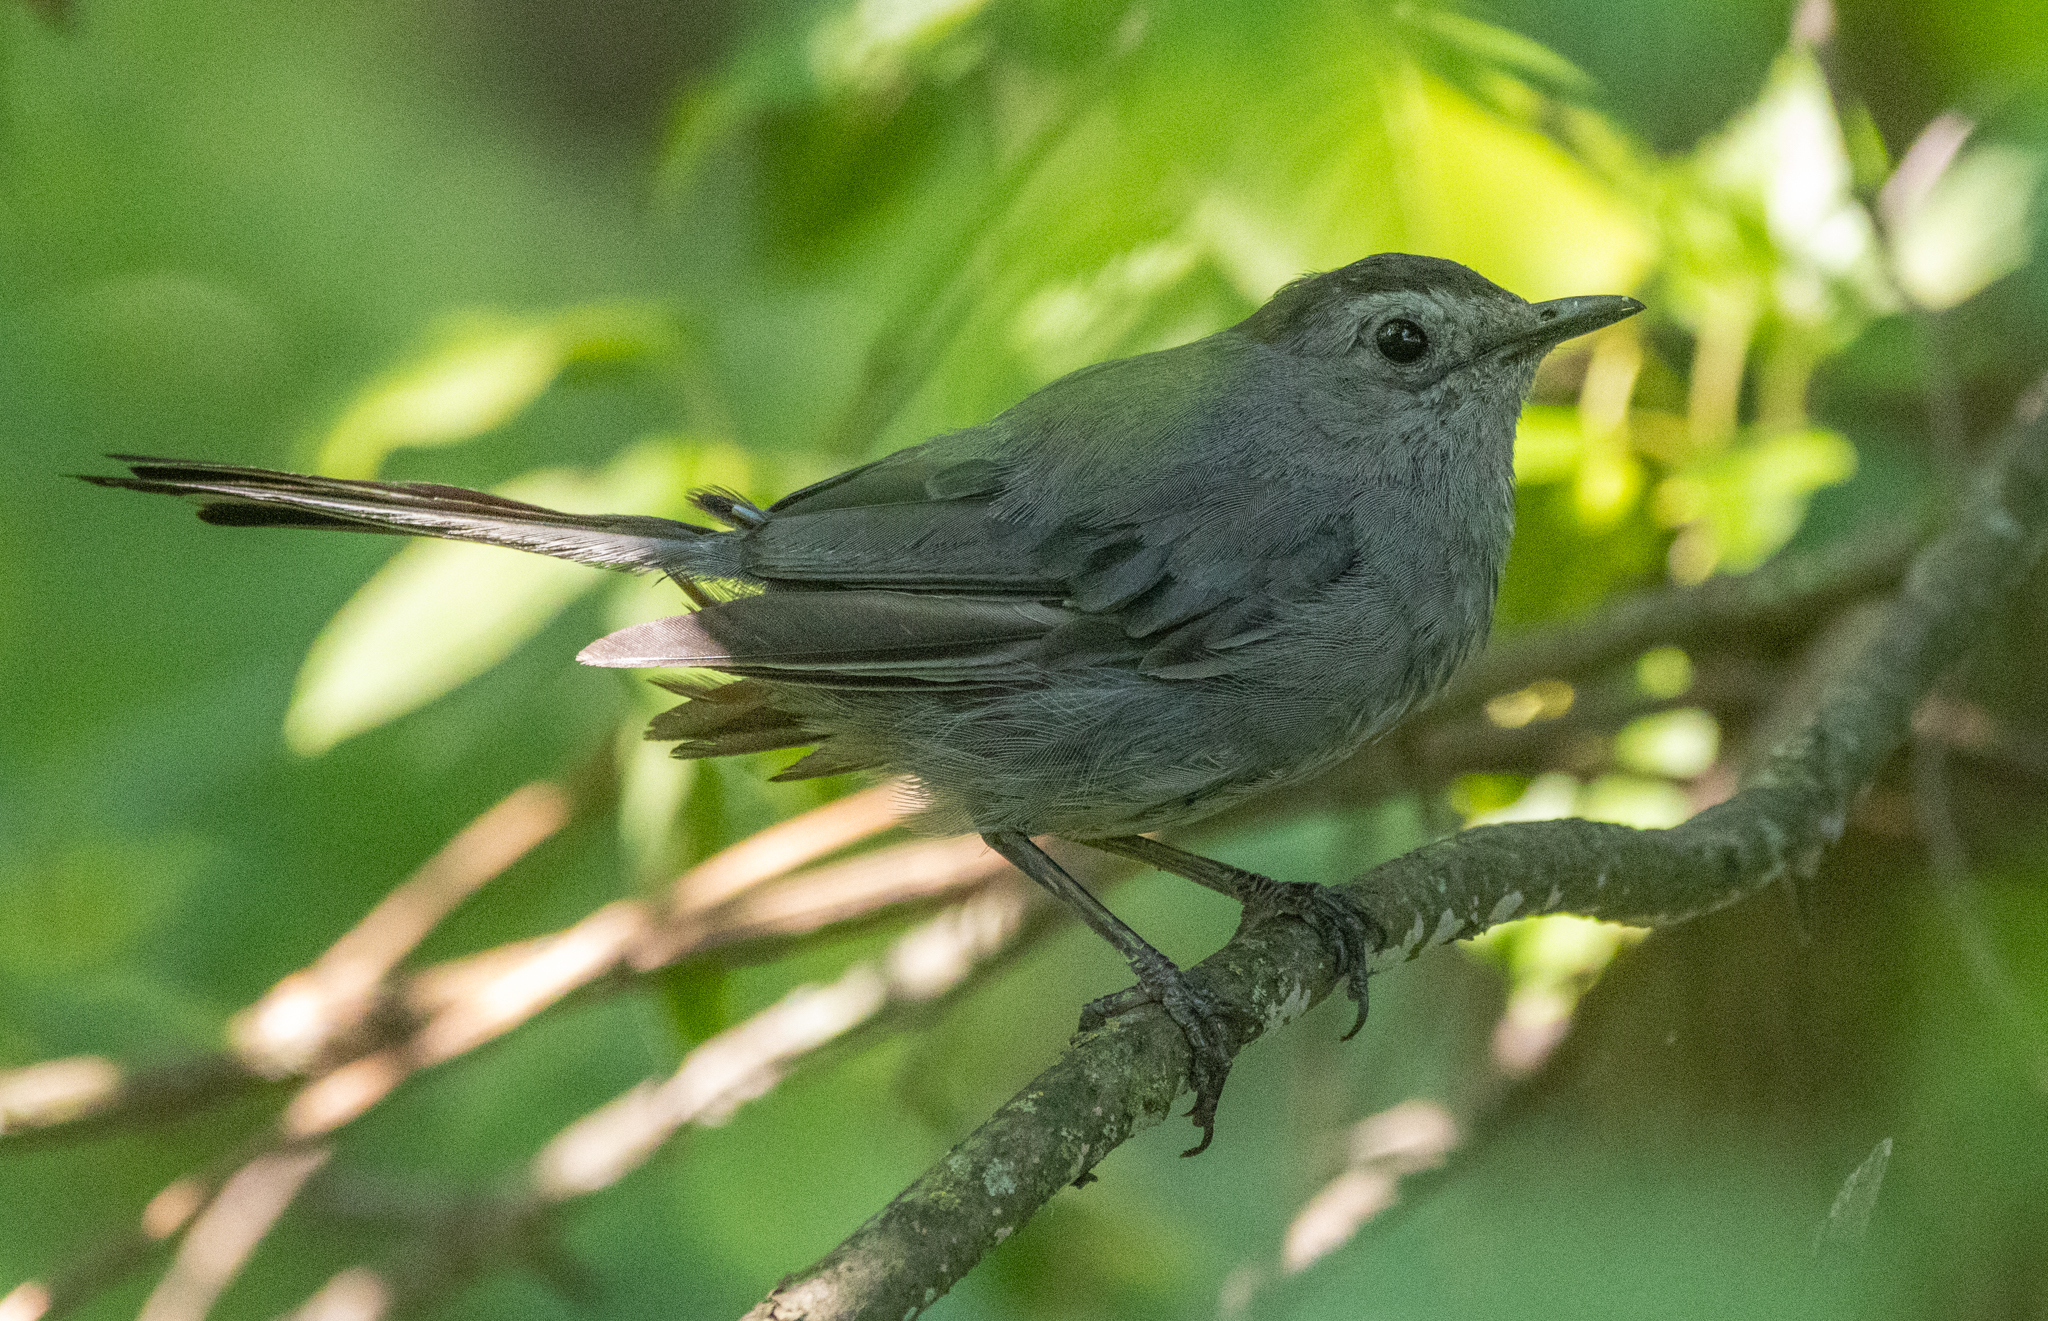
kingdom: Animalia
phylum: Chordata
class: Aves
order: Passeriformes
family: Mimidae
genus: Dumetella
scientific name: Dumetella carolinensis
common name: Gray catbird
